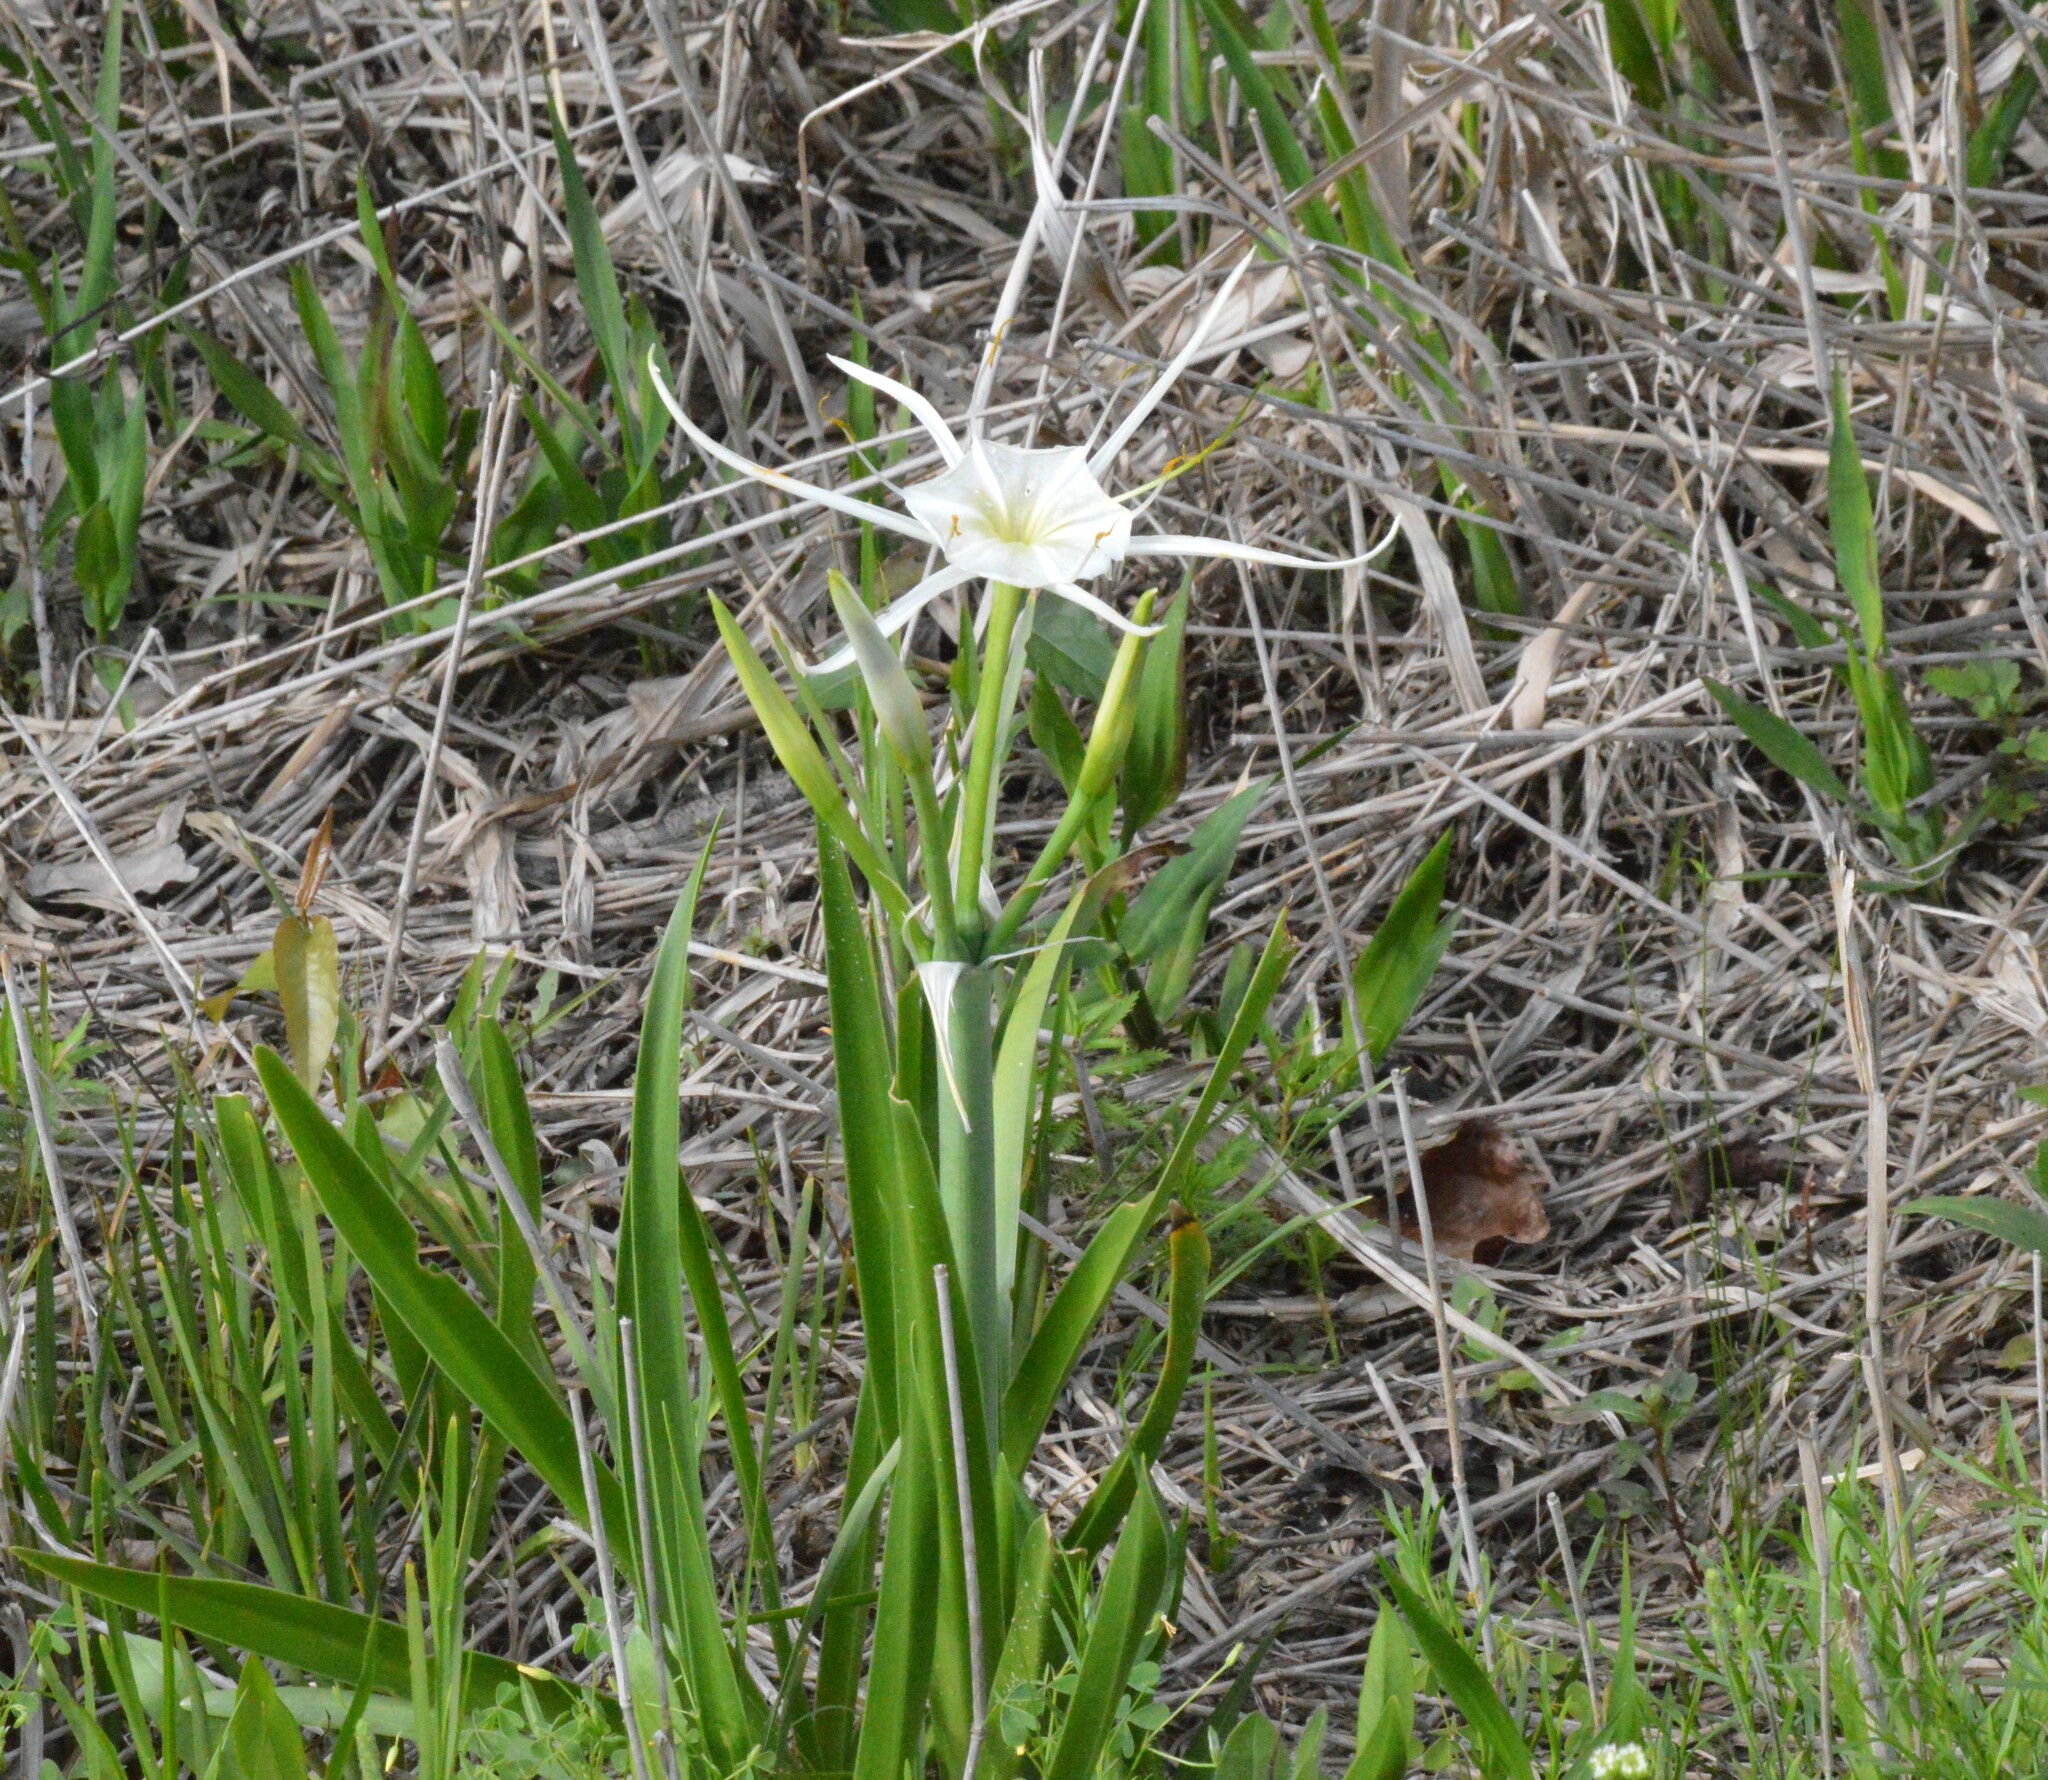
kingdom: Plantae
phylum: Tracheophyta
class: Liliopsida
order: Asparagales
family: Amaryllidaceae
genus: Hymenocallis
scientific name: Hymenocallis liriosme
